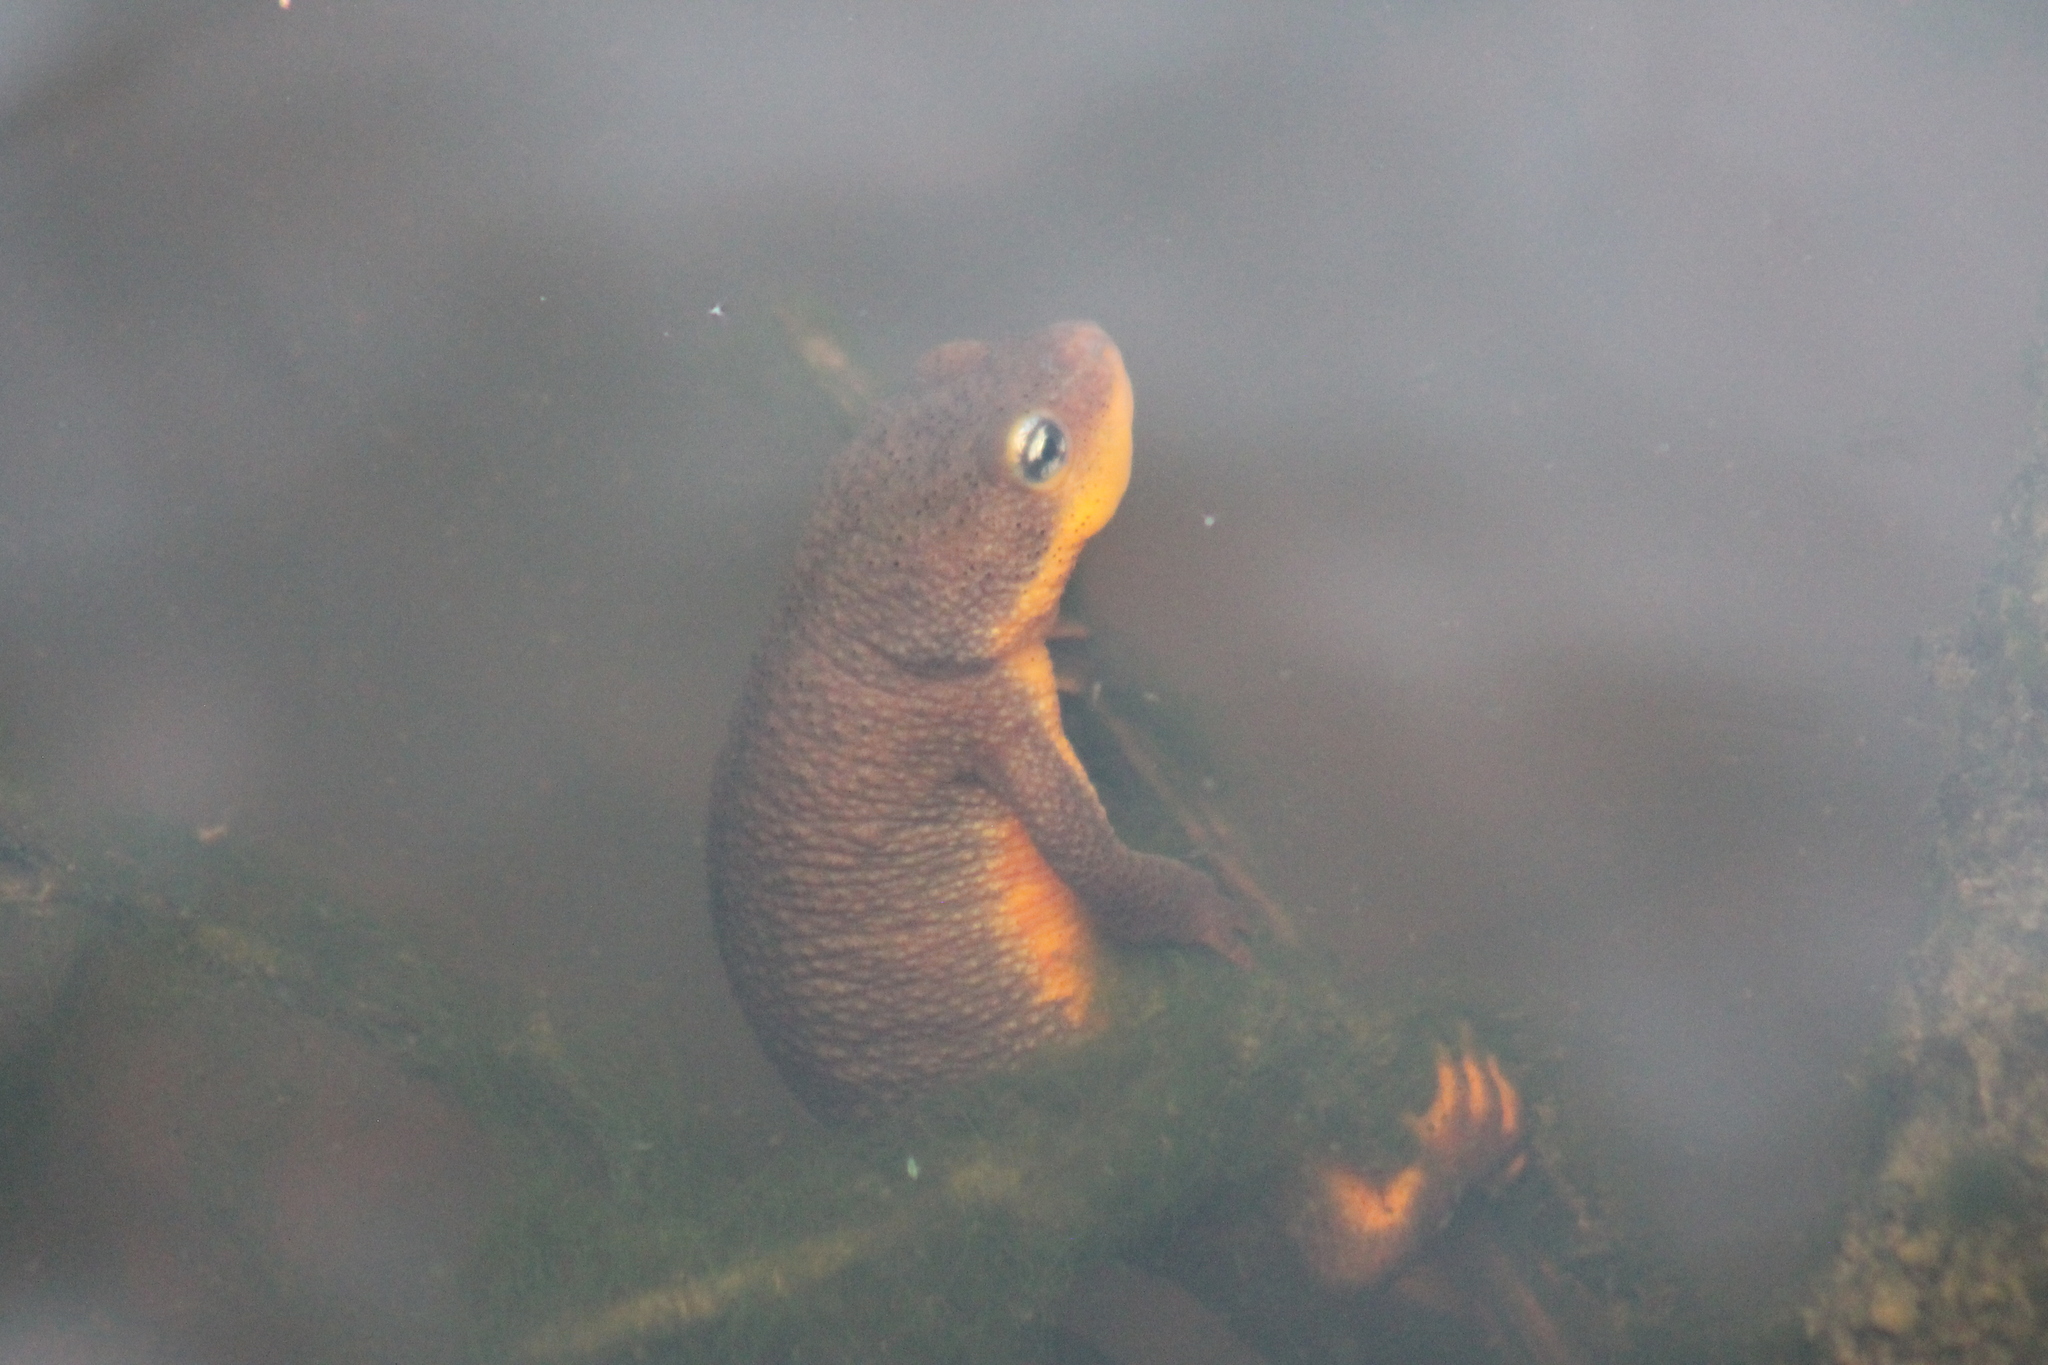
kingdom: Animalia
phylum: Chordata
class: Amphibia
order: Caudata
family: Salamandridae
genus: Taricha
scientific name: Taricha granulosa
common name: Roughskin newt
